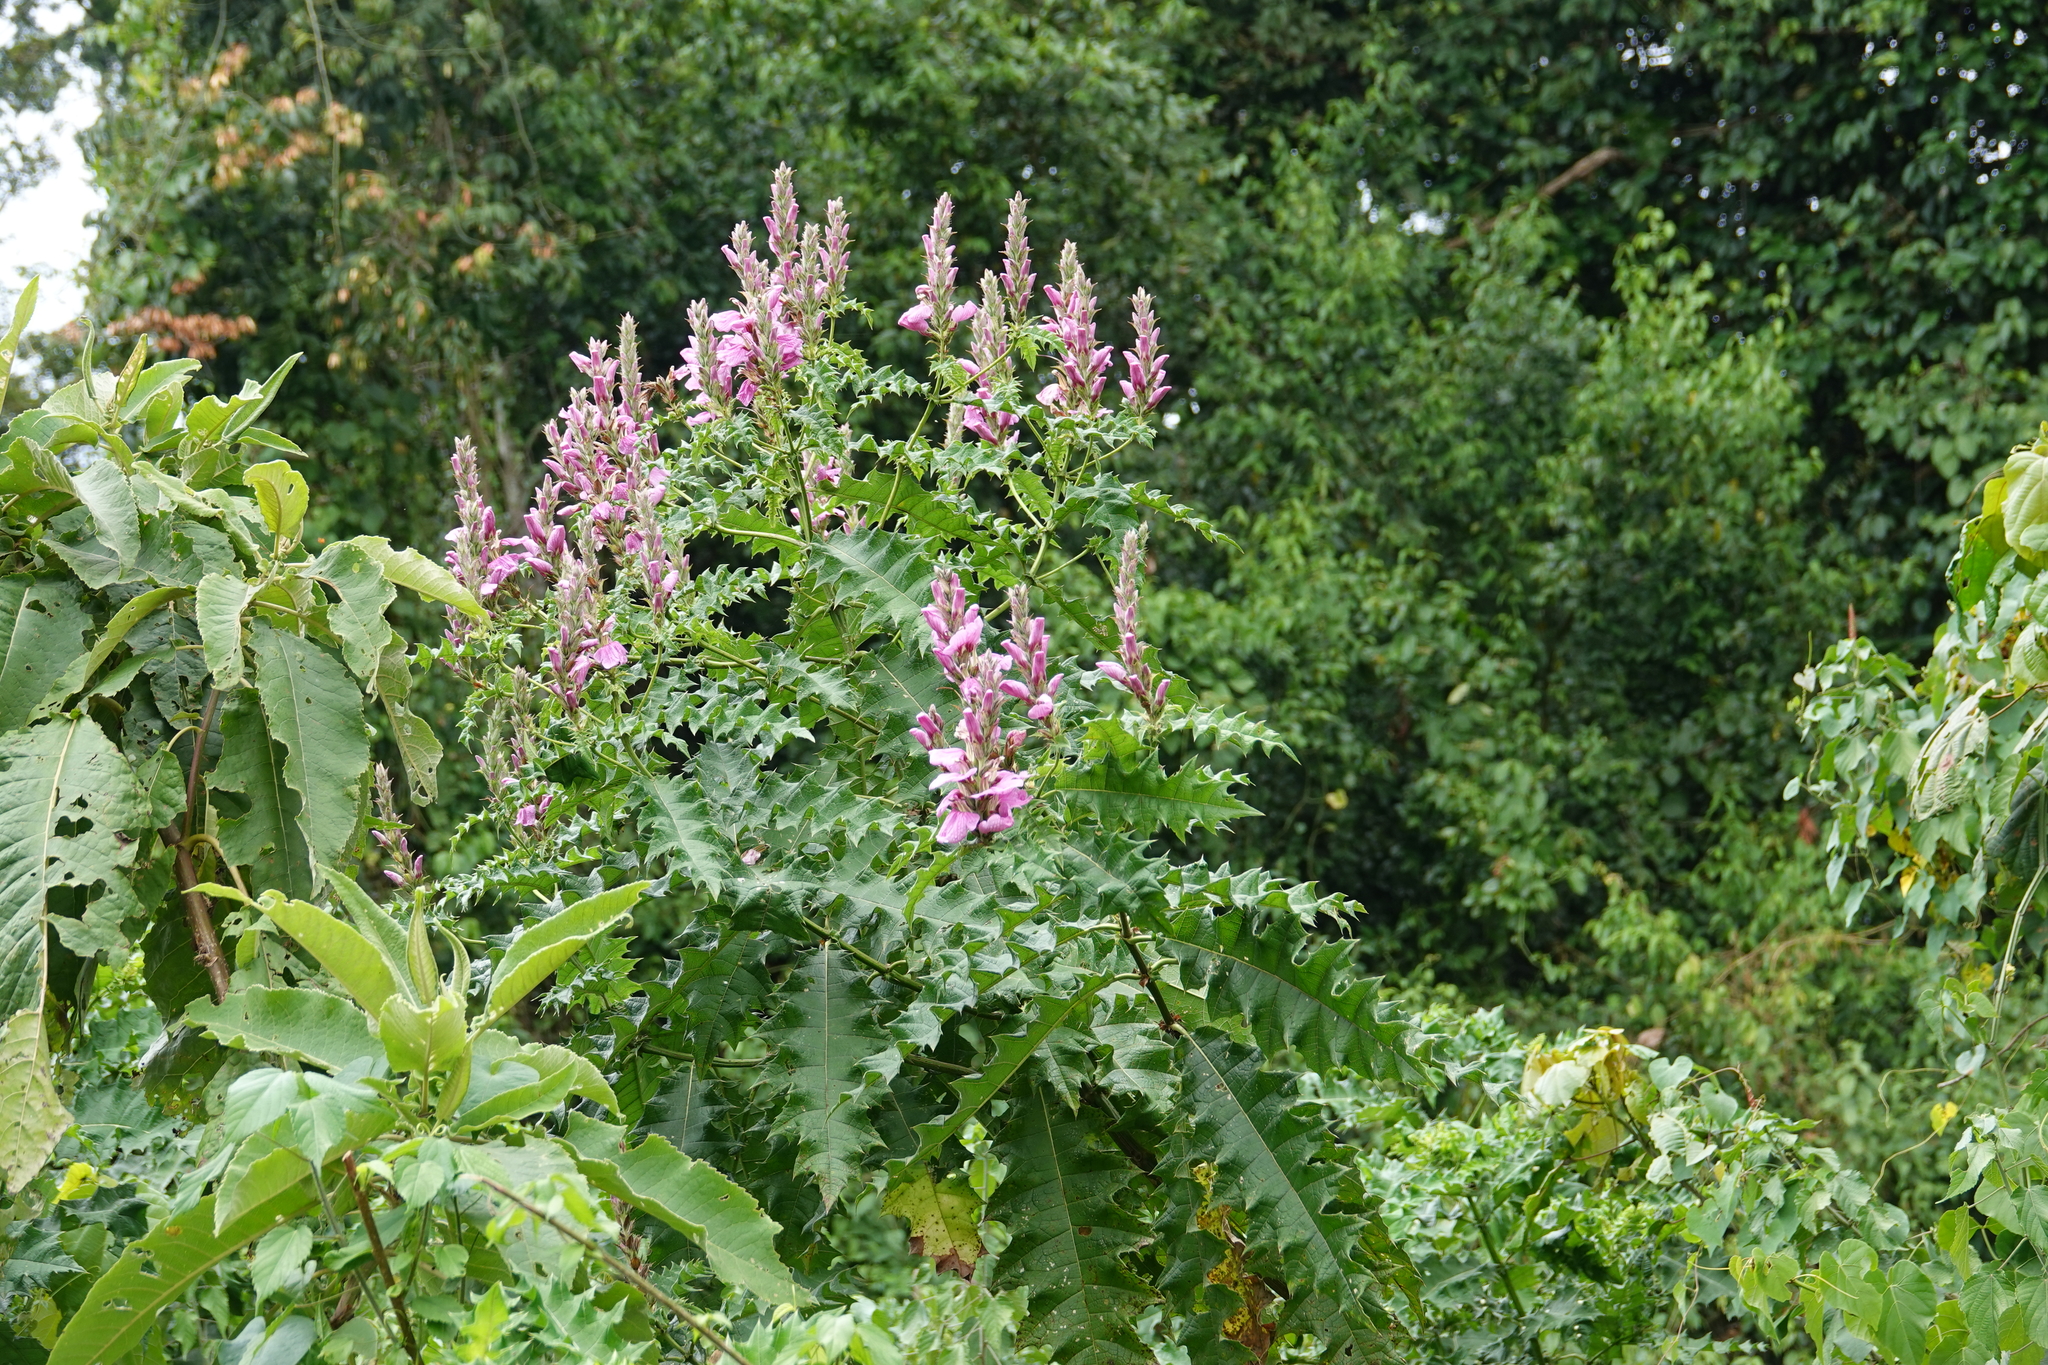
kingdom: Plantae
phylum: Tracheophyta
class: Magnoliopsida
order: Lamiales
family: Acanthaceae
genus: Acanthus
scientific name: Acanthus polystachyus
